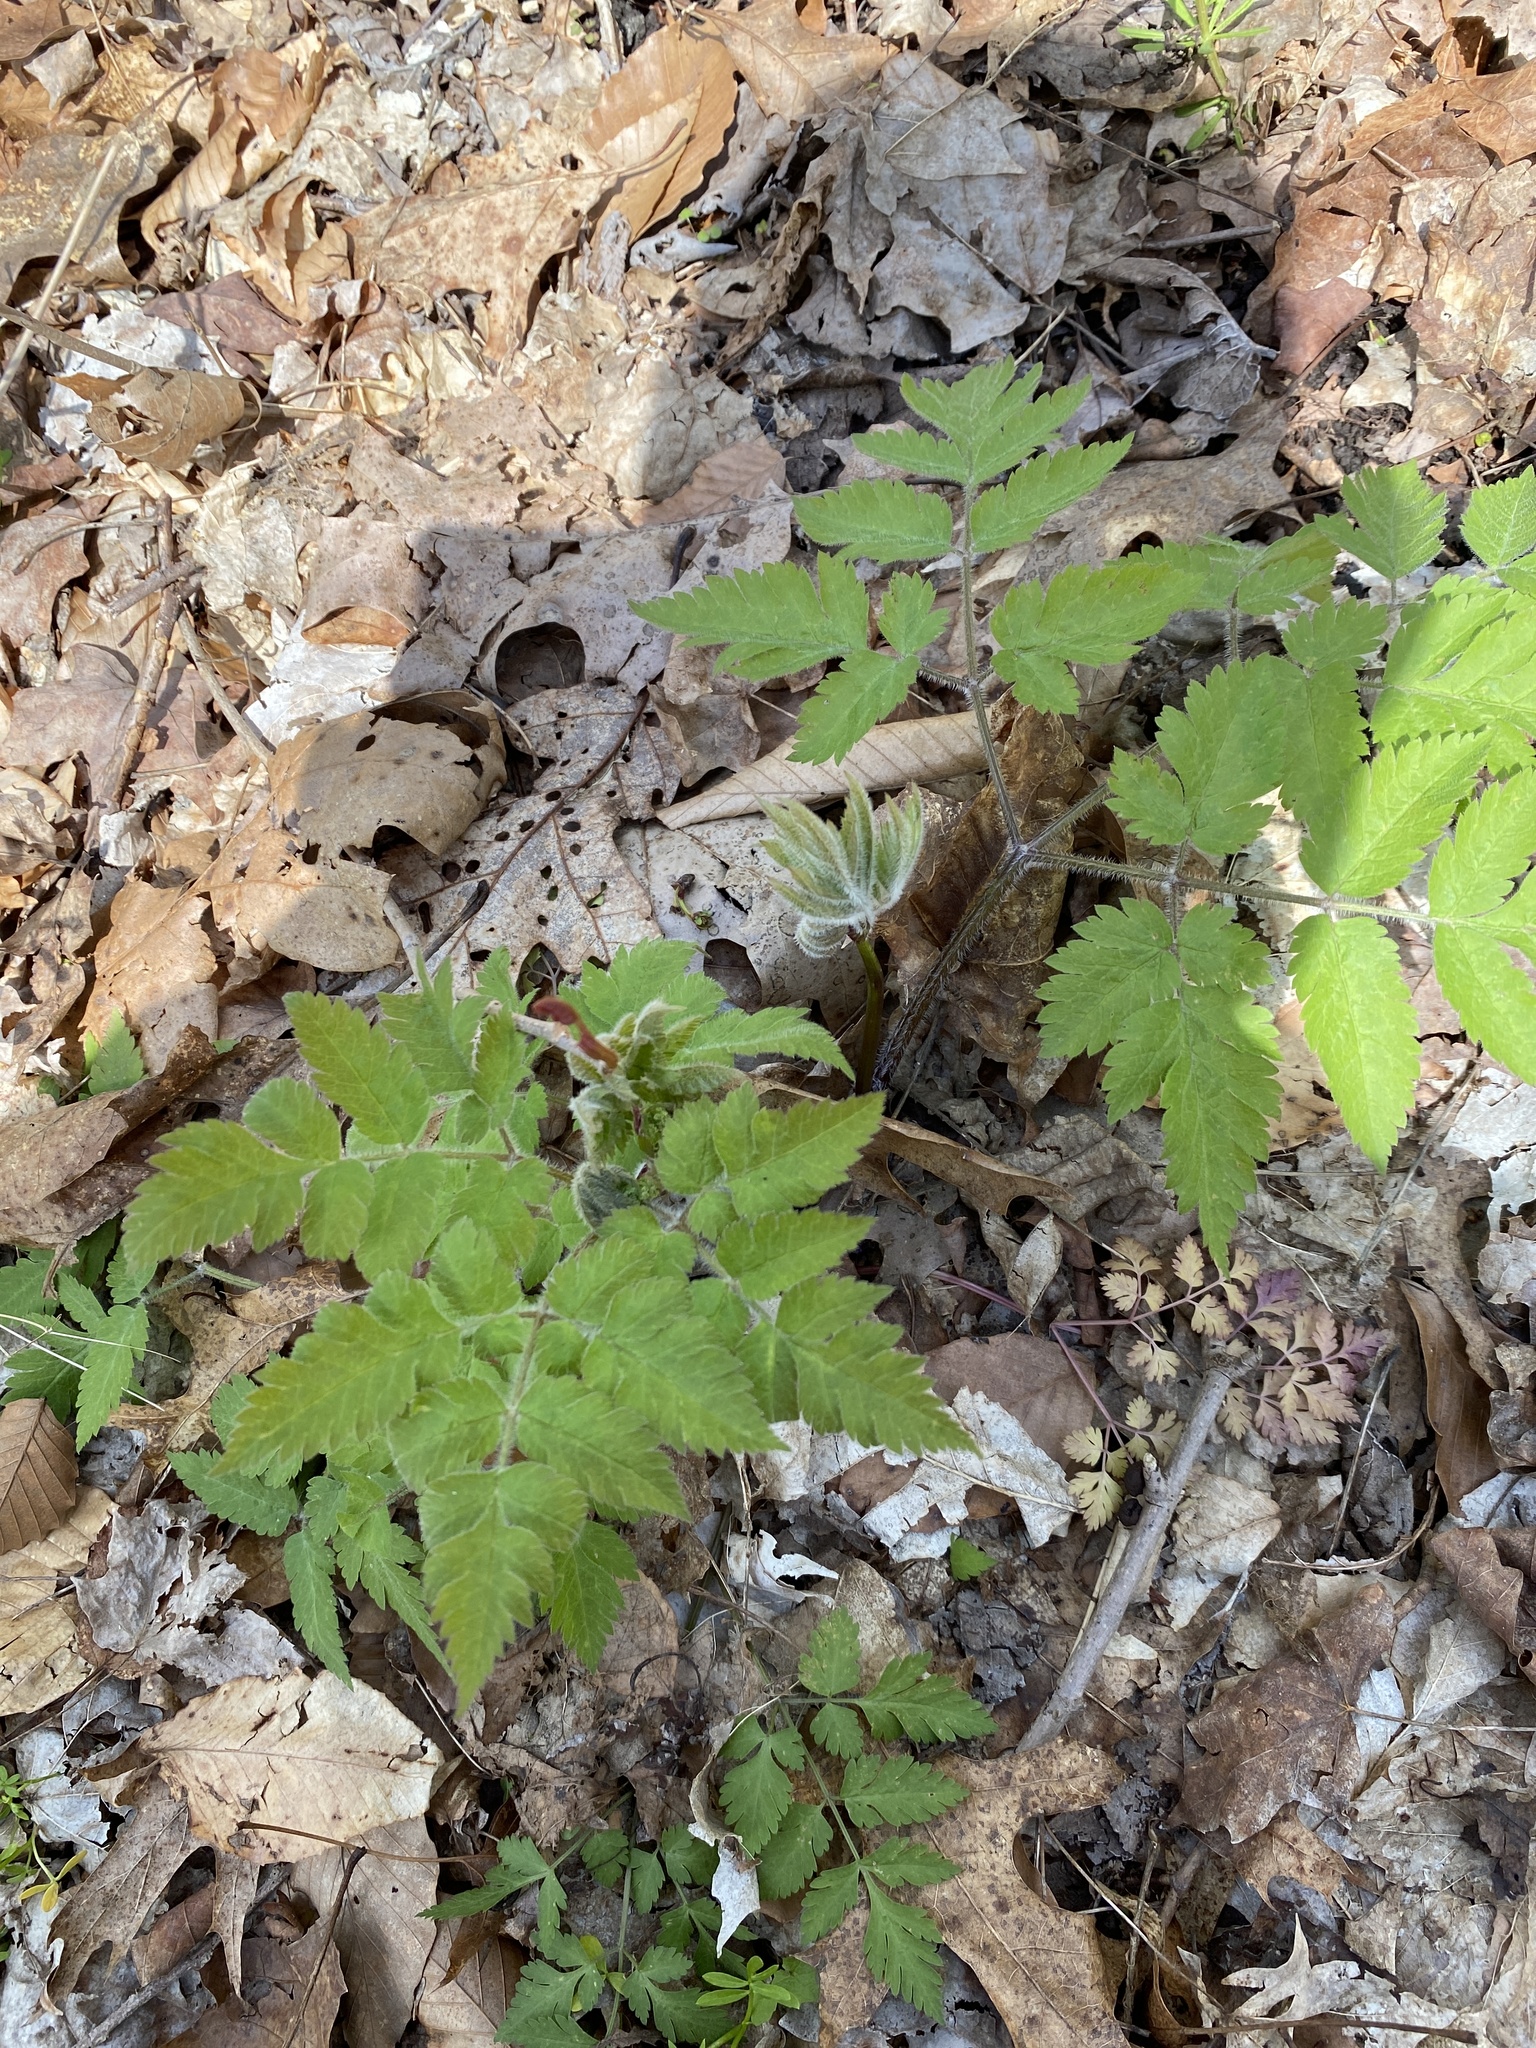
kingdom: Plantae
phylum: Tracheophyta
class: Magnoliopsida
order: Apiales
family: Apiaceae
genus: Osmorhiza
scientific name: Osmorhiza claytonii
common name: Hairy sweet cicely
